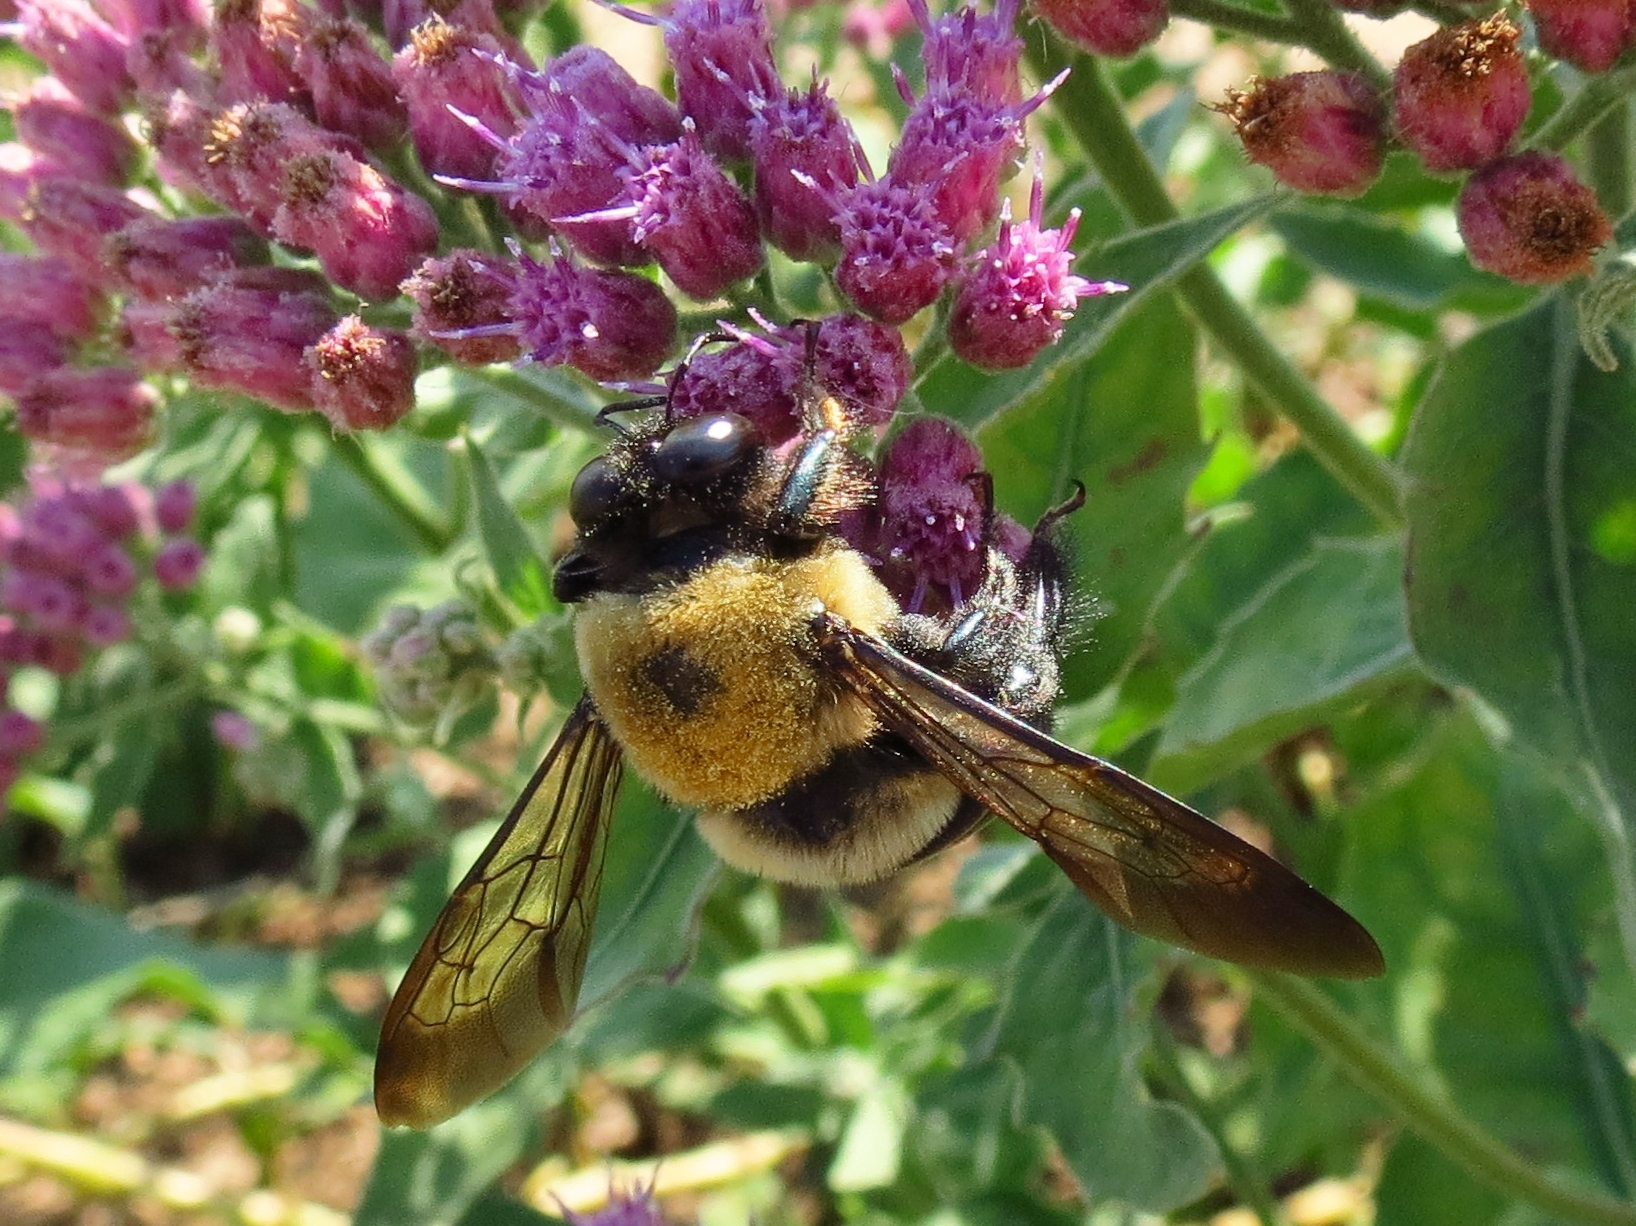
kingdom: Animalia
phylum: Arthropoda
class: Insecta
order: Hymenoptera
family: Apidae
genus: Xylocopa
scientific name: Xylocopa virginica
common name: Carpenter bee
